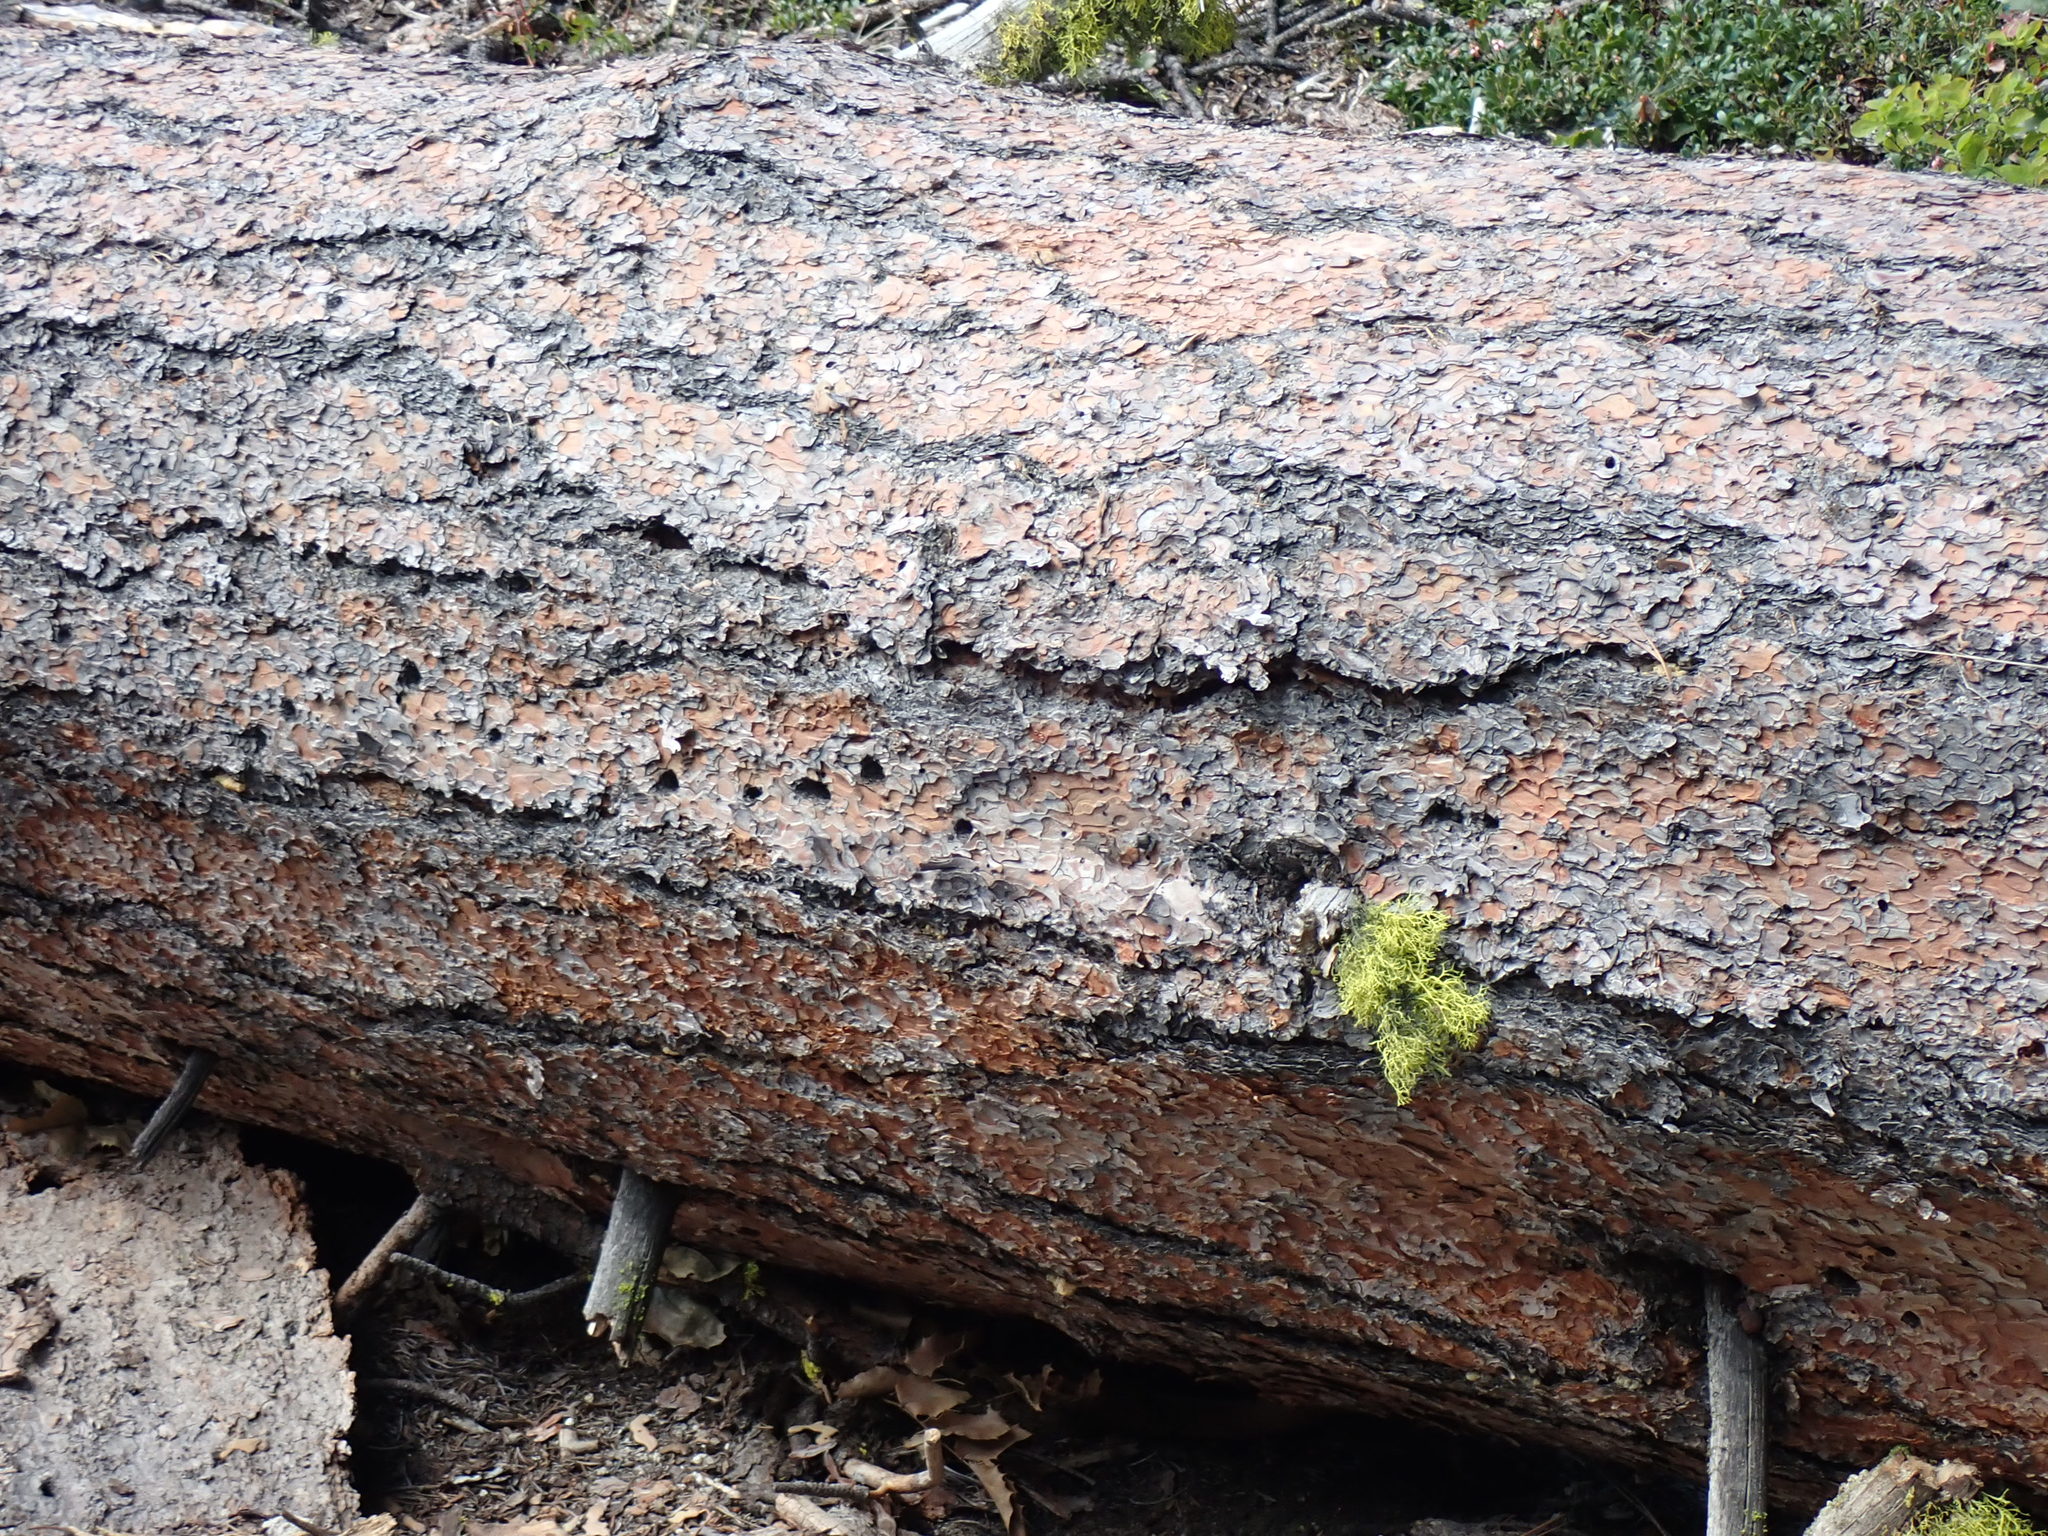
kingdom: Plantae
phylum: Tracheophyta
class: Pinopsida
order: Pinales
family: Pinaceae
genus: Pinus
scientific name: Pinus ponderosa
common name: Western yellow-pine
